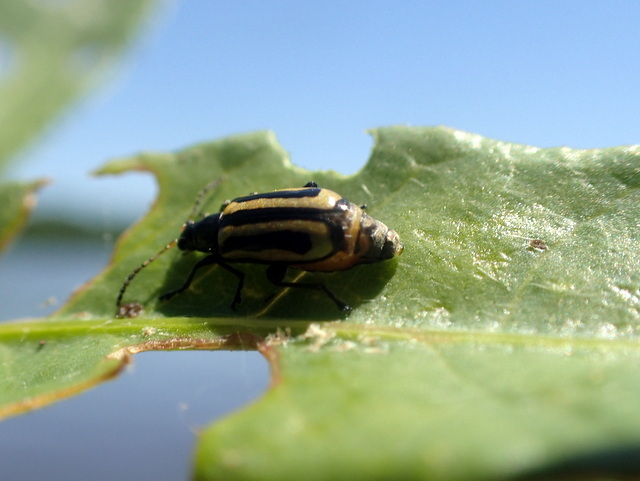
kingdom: Animalia
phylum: Arthropoda
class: Insecta
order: Coleoptera
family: Chrysomelidae
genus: Agasicles
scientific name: Agasicles hygrophila
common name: Alligatorweed flea beetle
